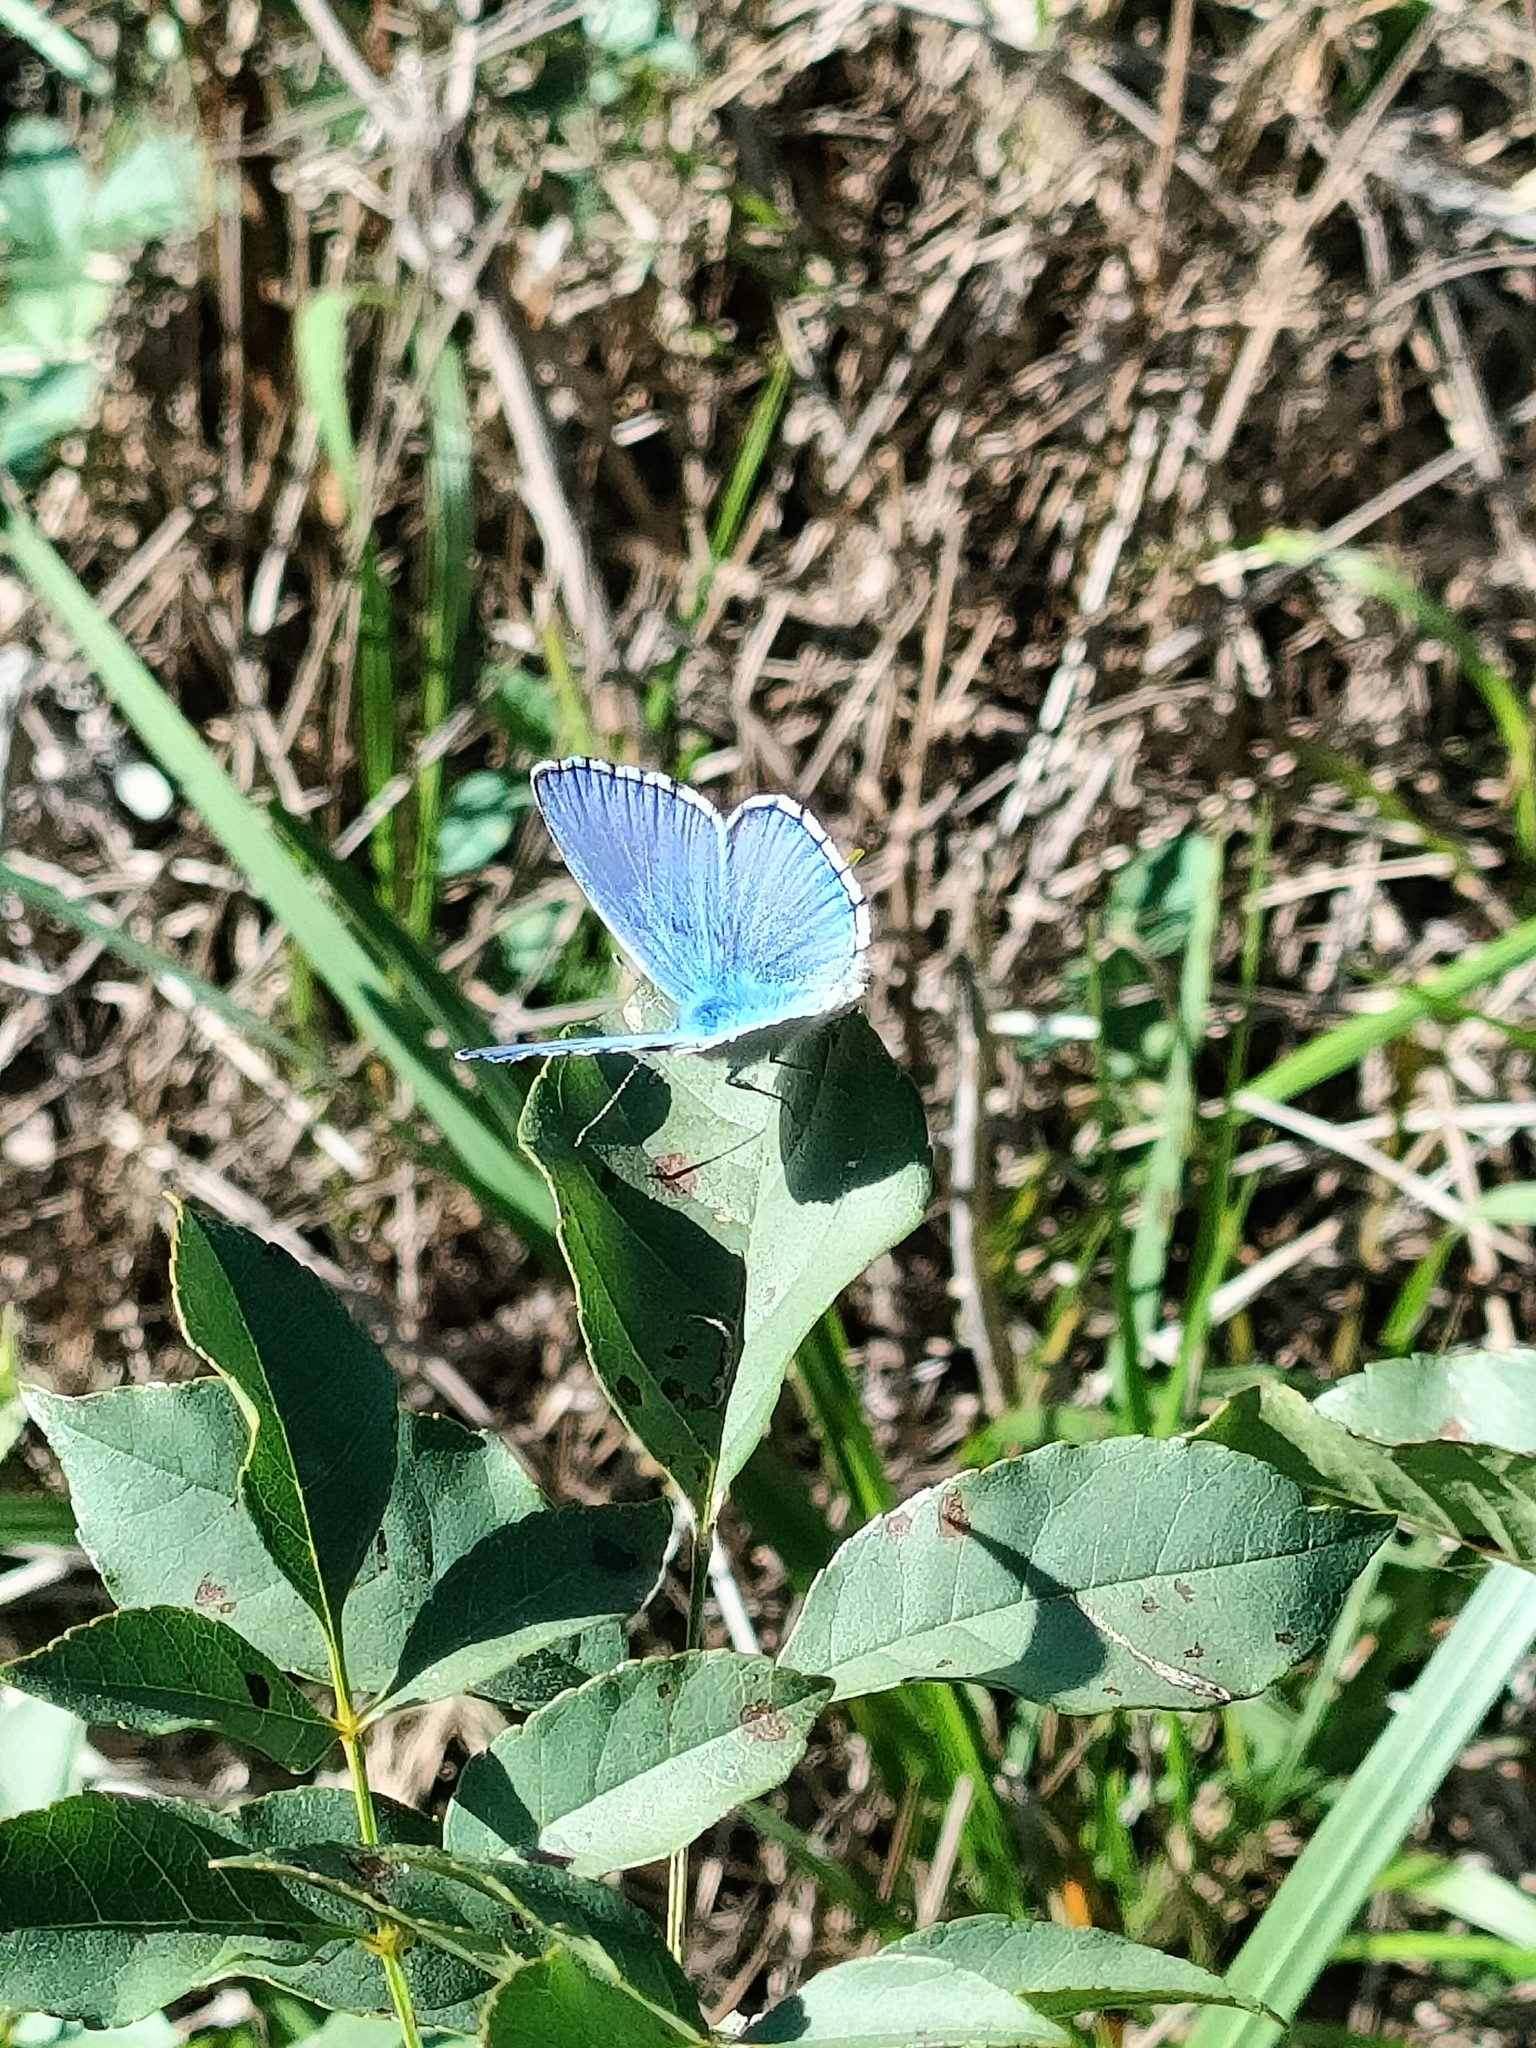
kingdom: Animalia
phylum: Arthropoda
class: Insecta
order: Lepidoptera
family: Lycaenidae
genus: Lysandra
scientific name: Lysandra bellargus
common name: Adonis blue
